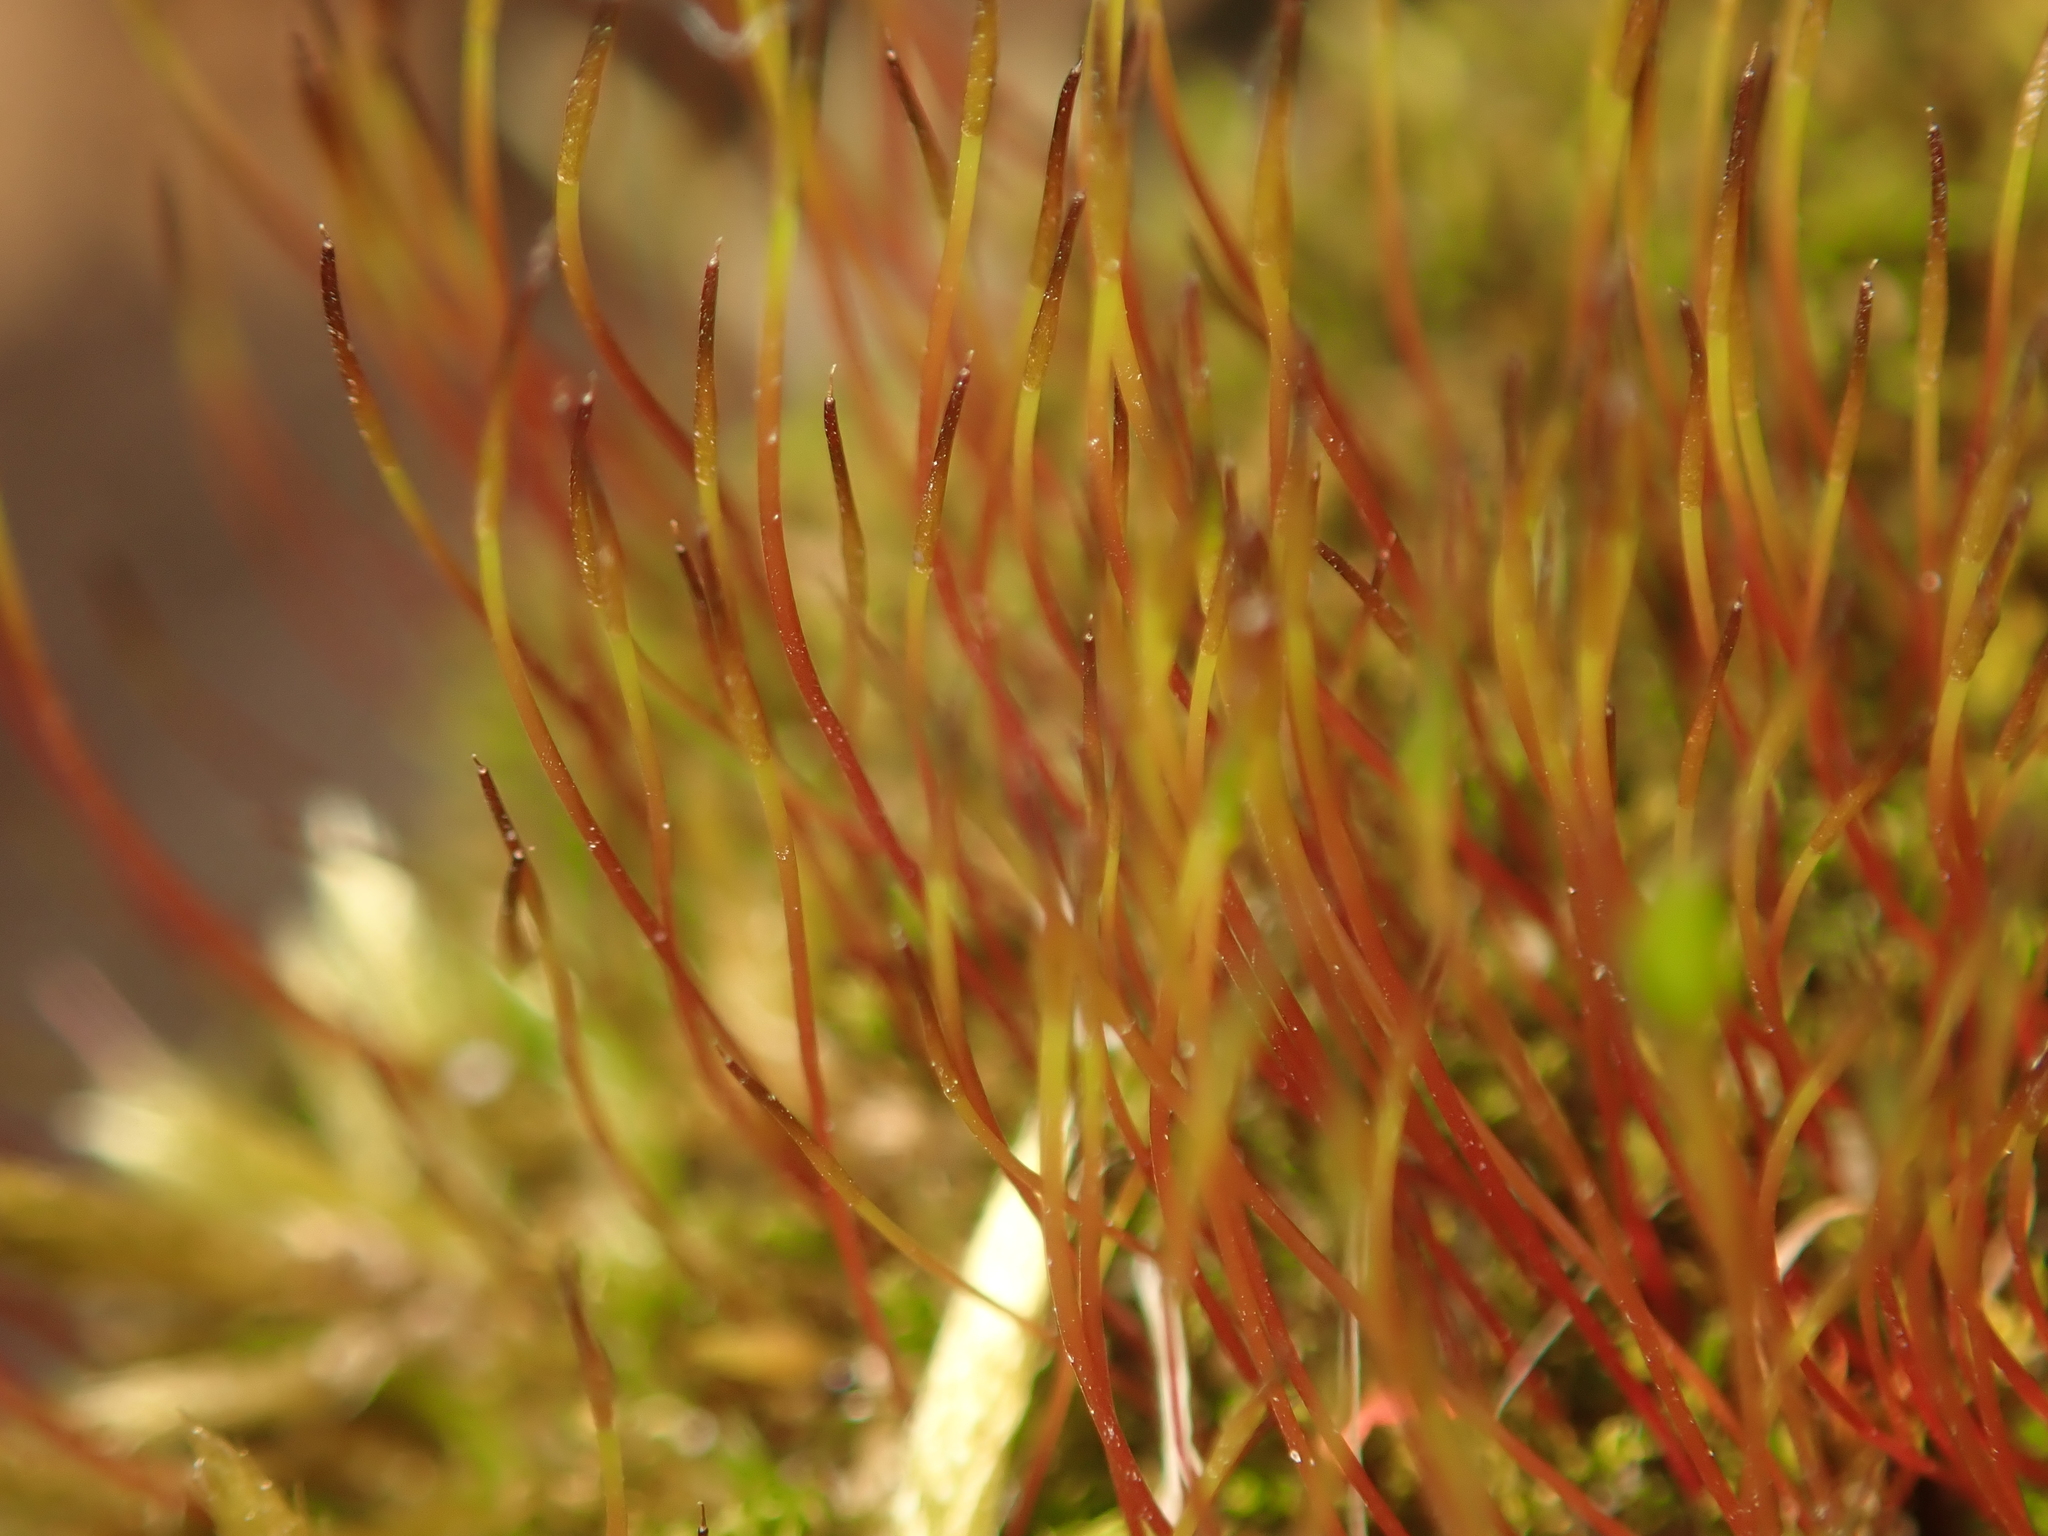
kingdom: Plantae
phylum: Bryophyta
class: Bryopsida
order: Dicranales
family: Ditrichaceae
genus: Ceratodon
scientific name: Ceratodon purpureus
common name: Redshank
